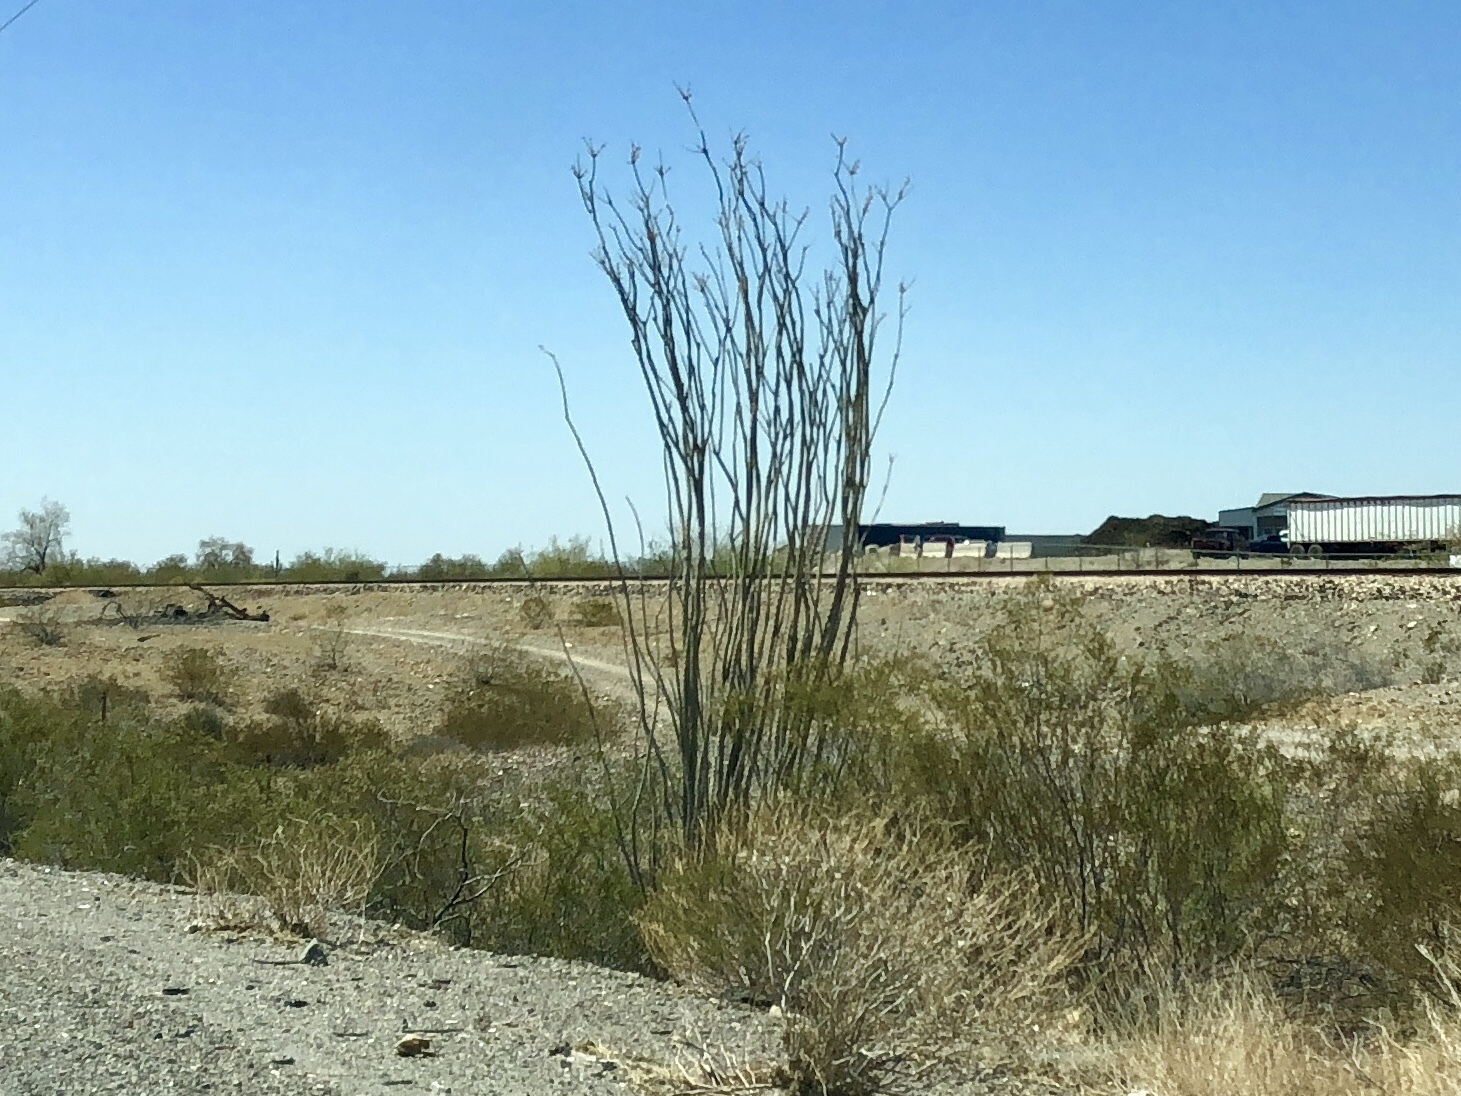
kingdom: Plantae
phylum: Tracheophyta
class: Magnoliopsida
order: Ericales
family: Fouquieriaceae
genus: Fouquieria
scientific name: Fouquieria splendens
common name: Vine-cactus
